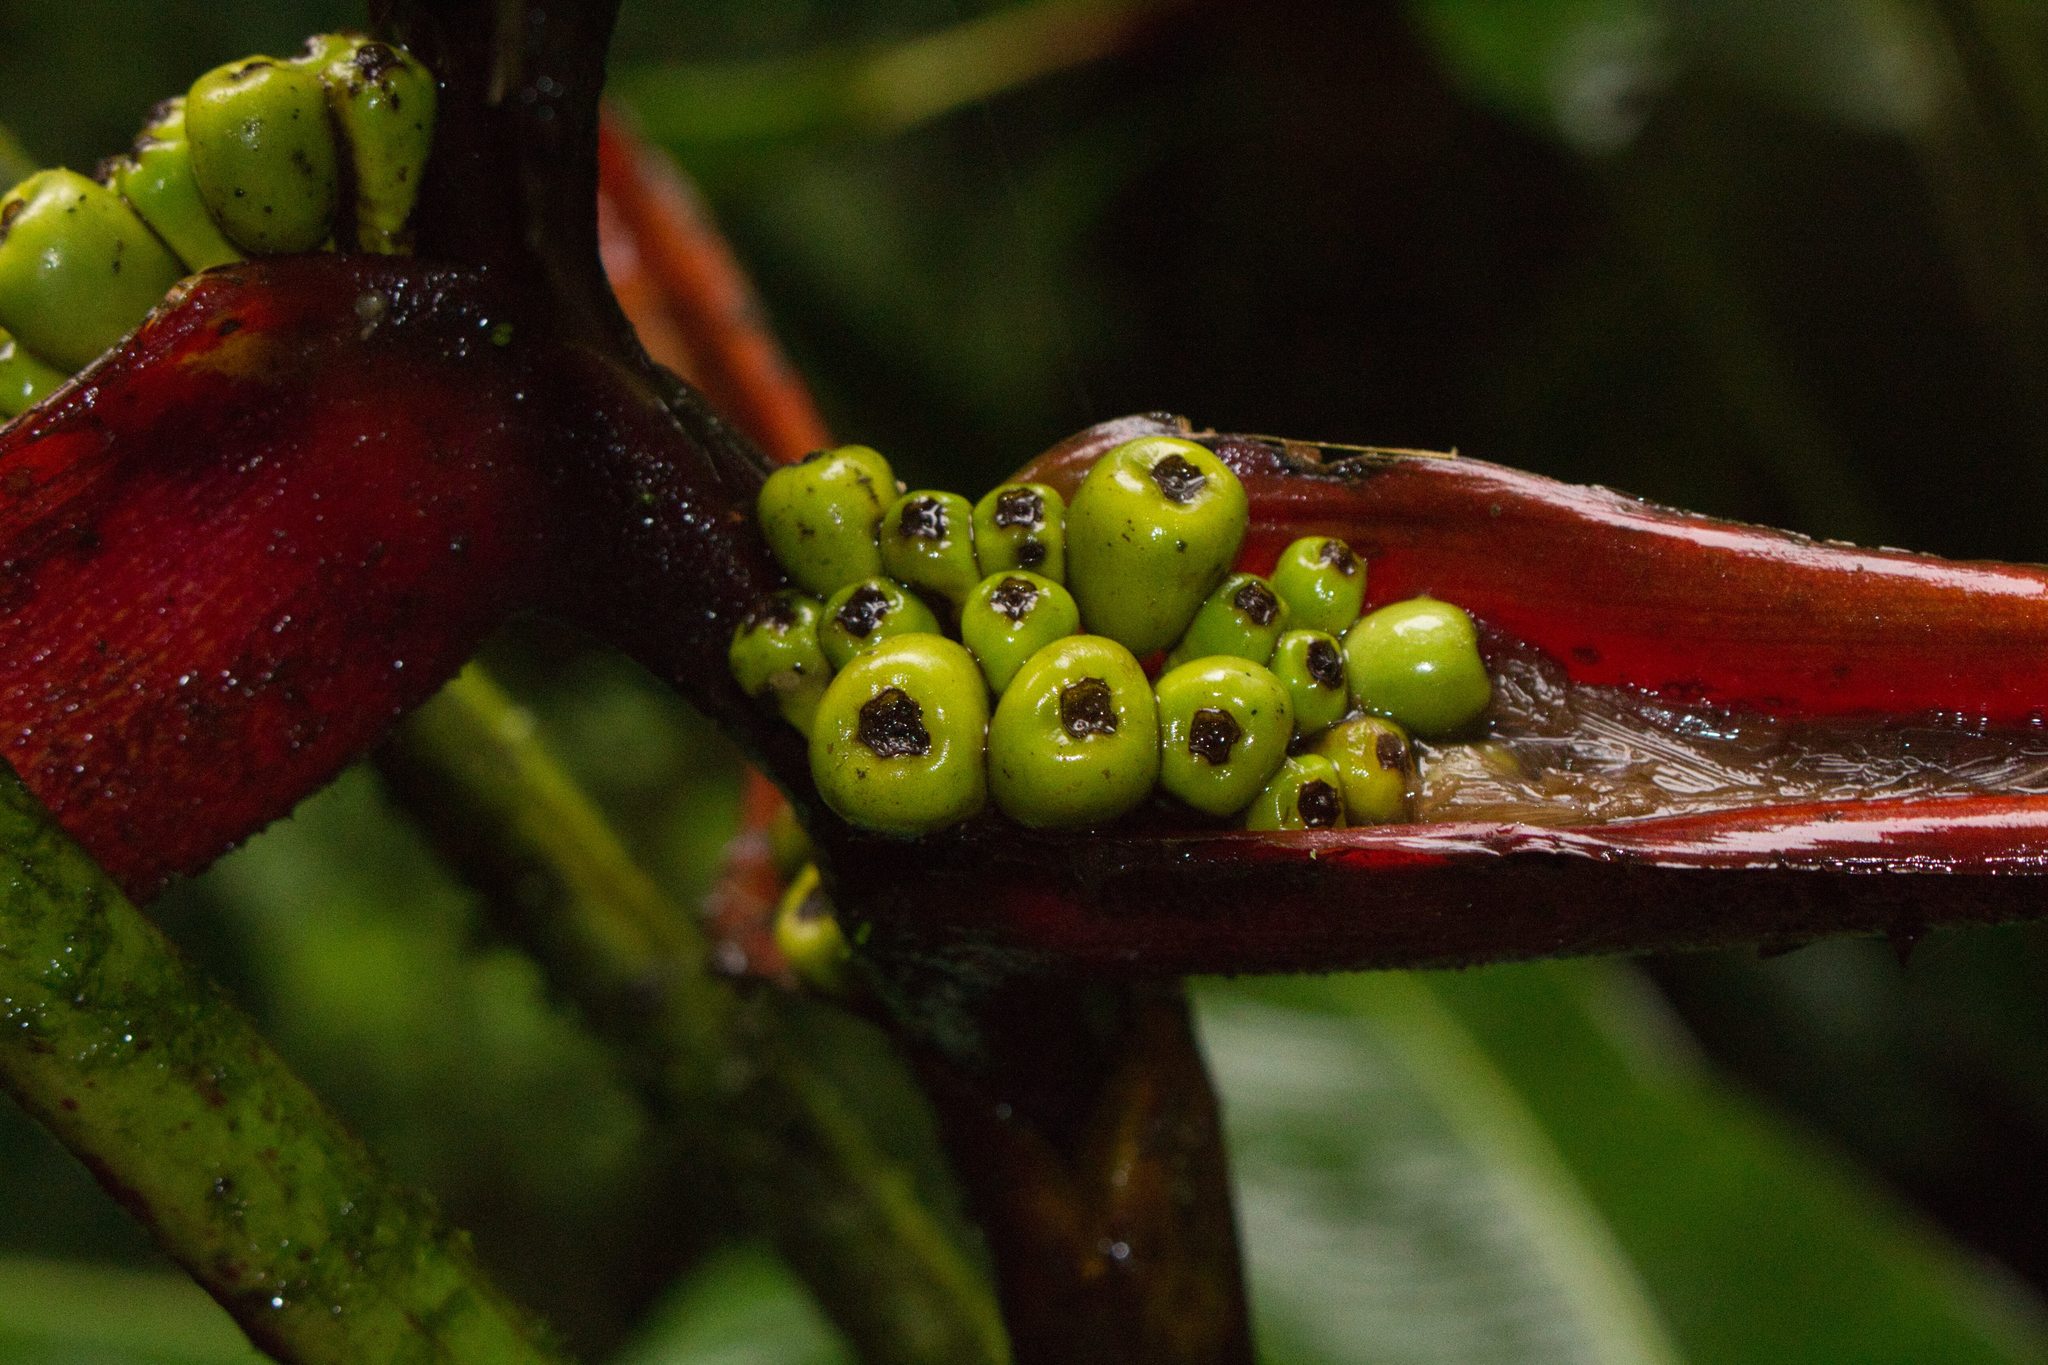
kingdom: Plantae
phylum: Tracheophyta
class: Liliopsida
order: Zingiberales
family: Heliconiaceae
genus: Heliconia
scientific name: Heliconia monteverdensis
